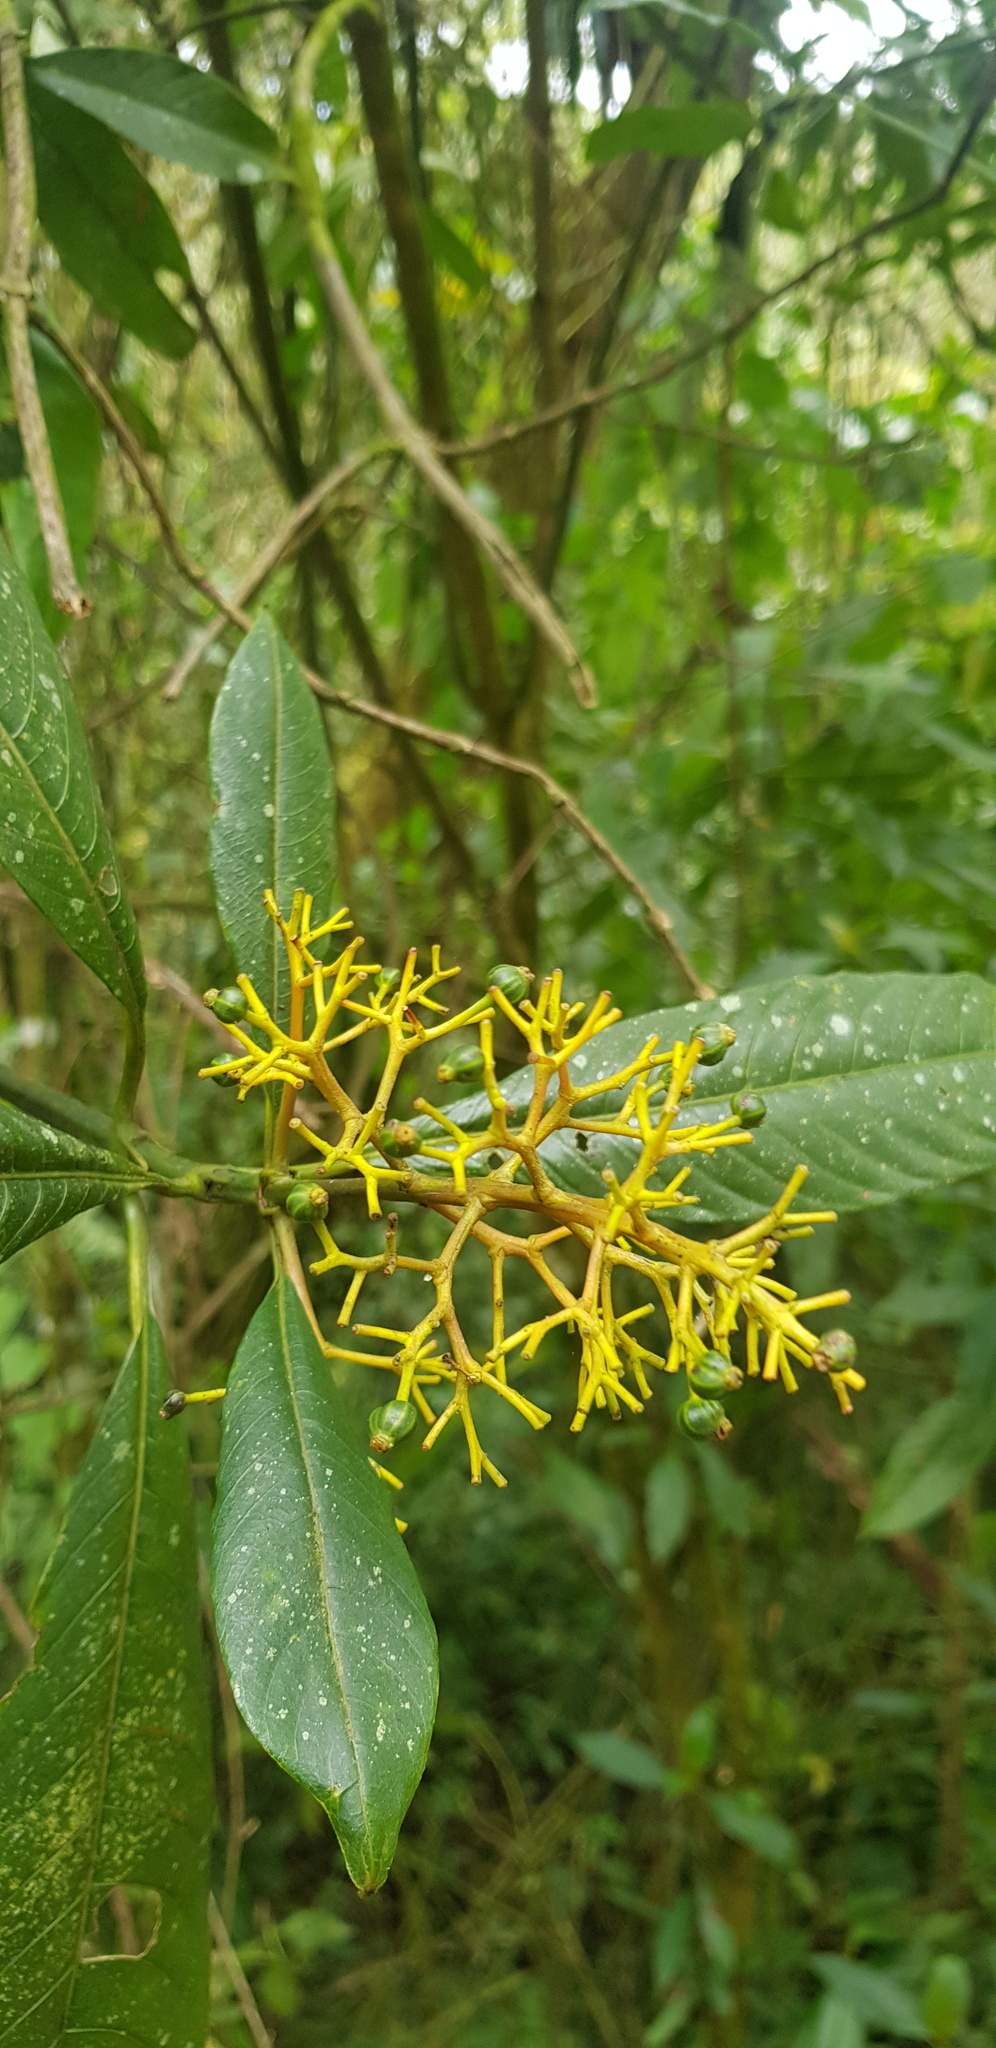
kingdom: Plantae
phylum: Tracheophyta
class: Magnoliopsida
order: Gentianales
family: Rubiaceae
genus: Palicourea
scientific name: Palicourea padifolia
